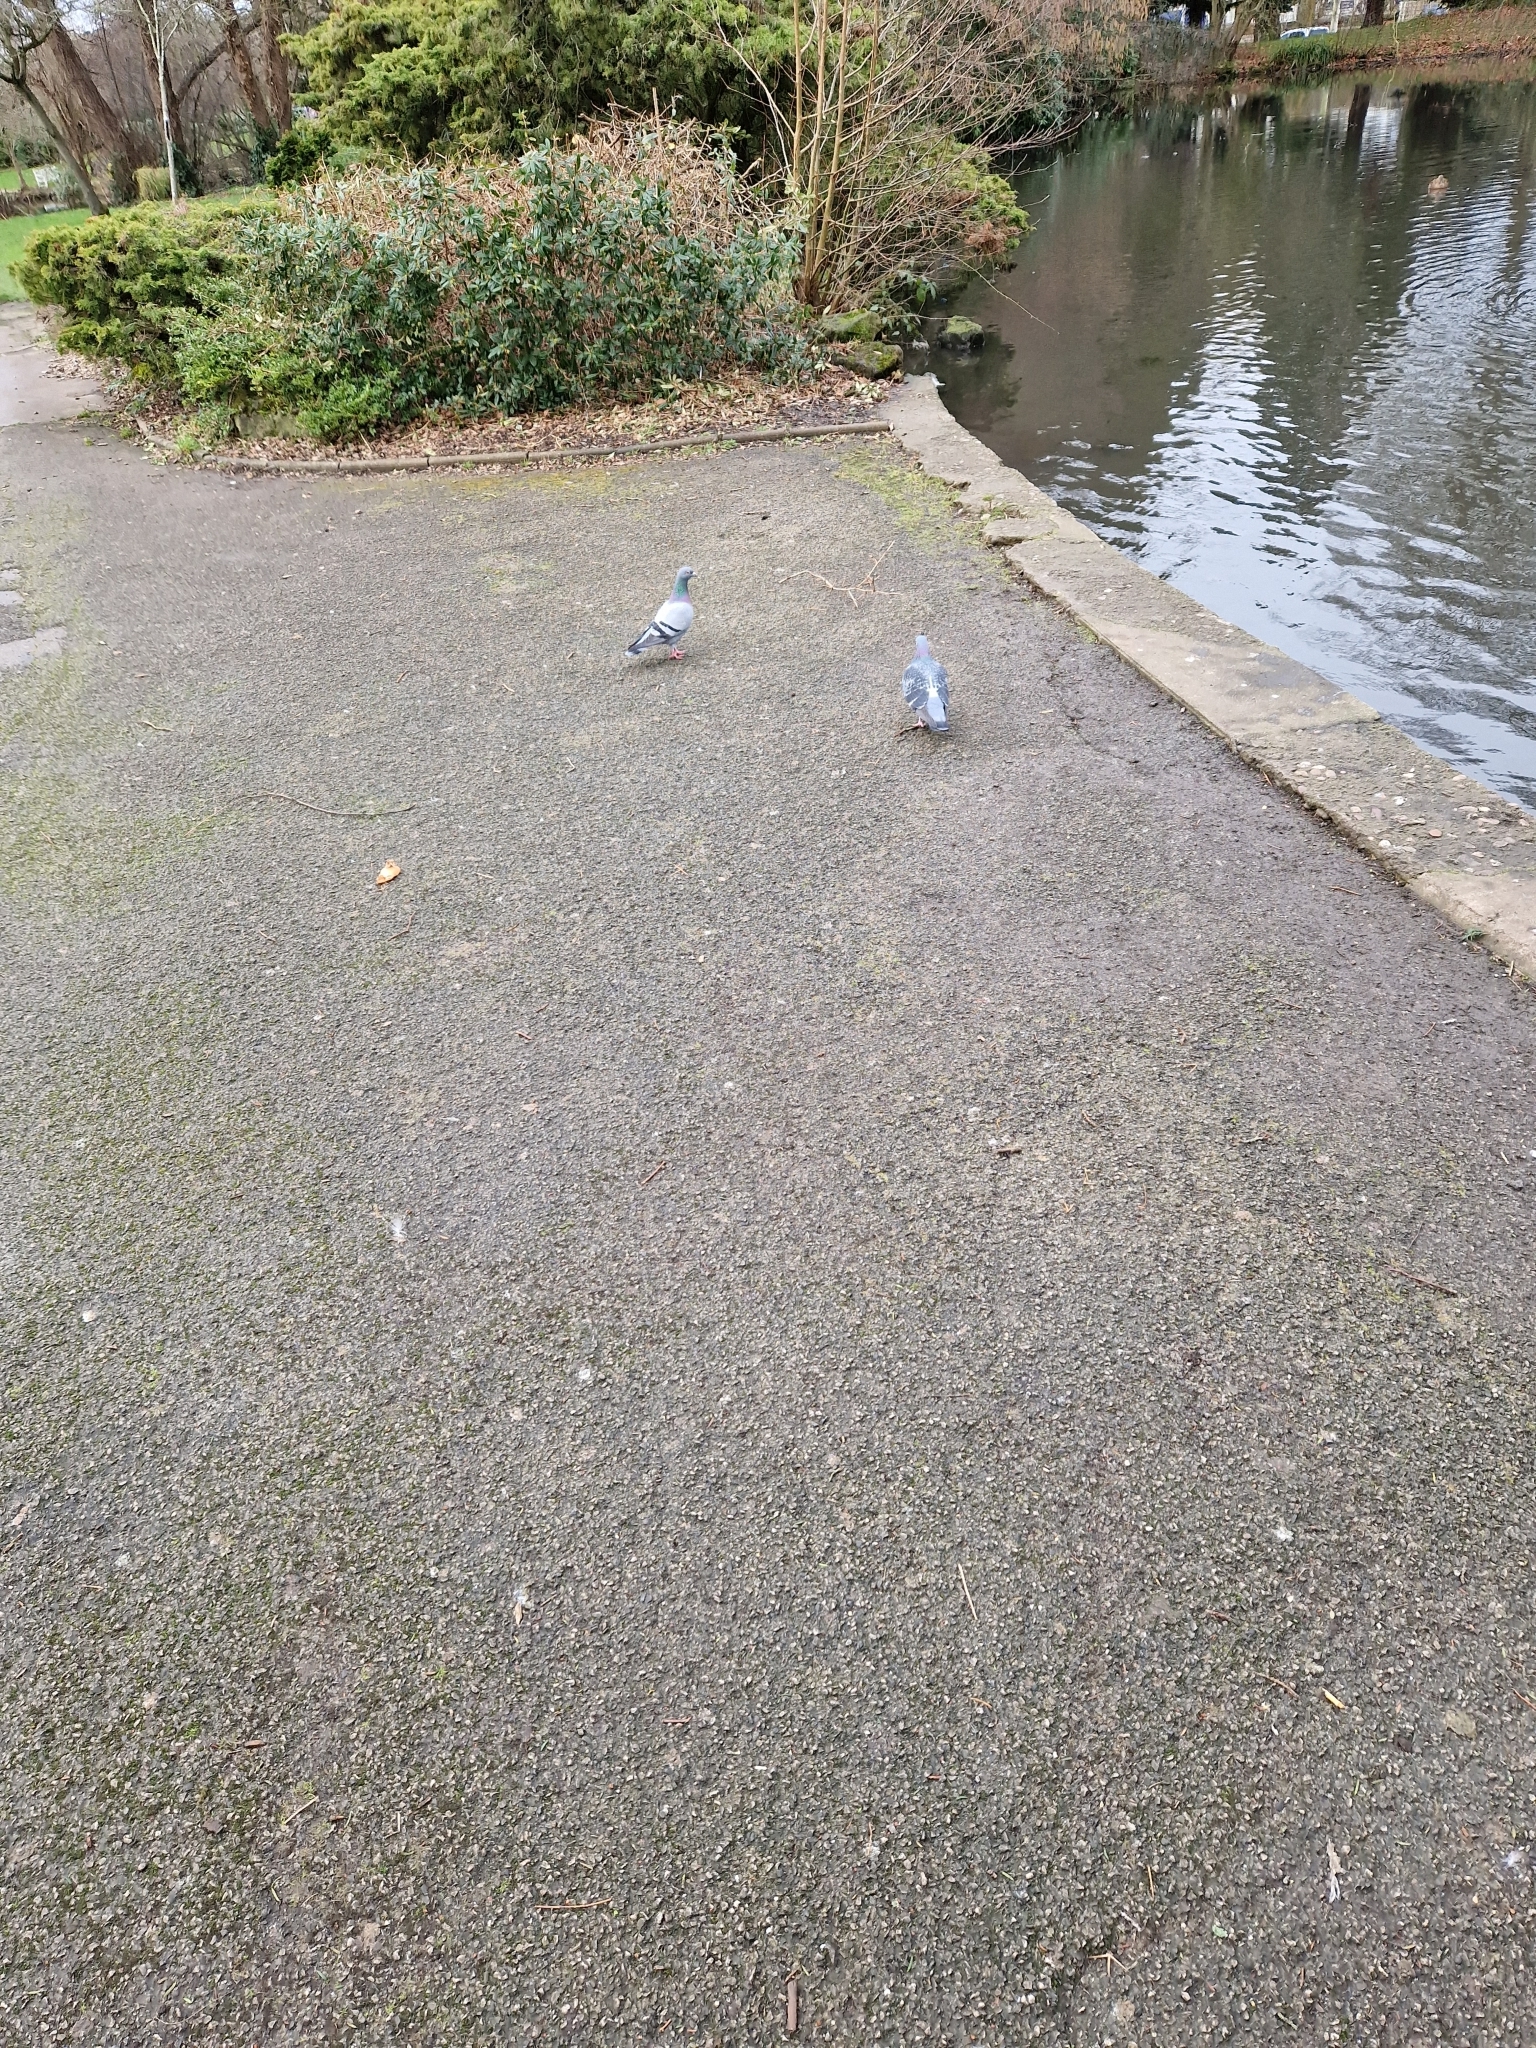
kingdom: Animalia
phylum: Chordata
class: Aves
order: Columbiformes
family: Columbidae
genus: Columba
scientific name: Columba livia
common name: Rock pigeon
